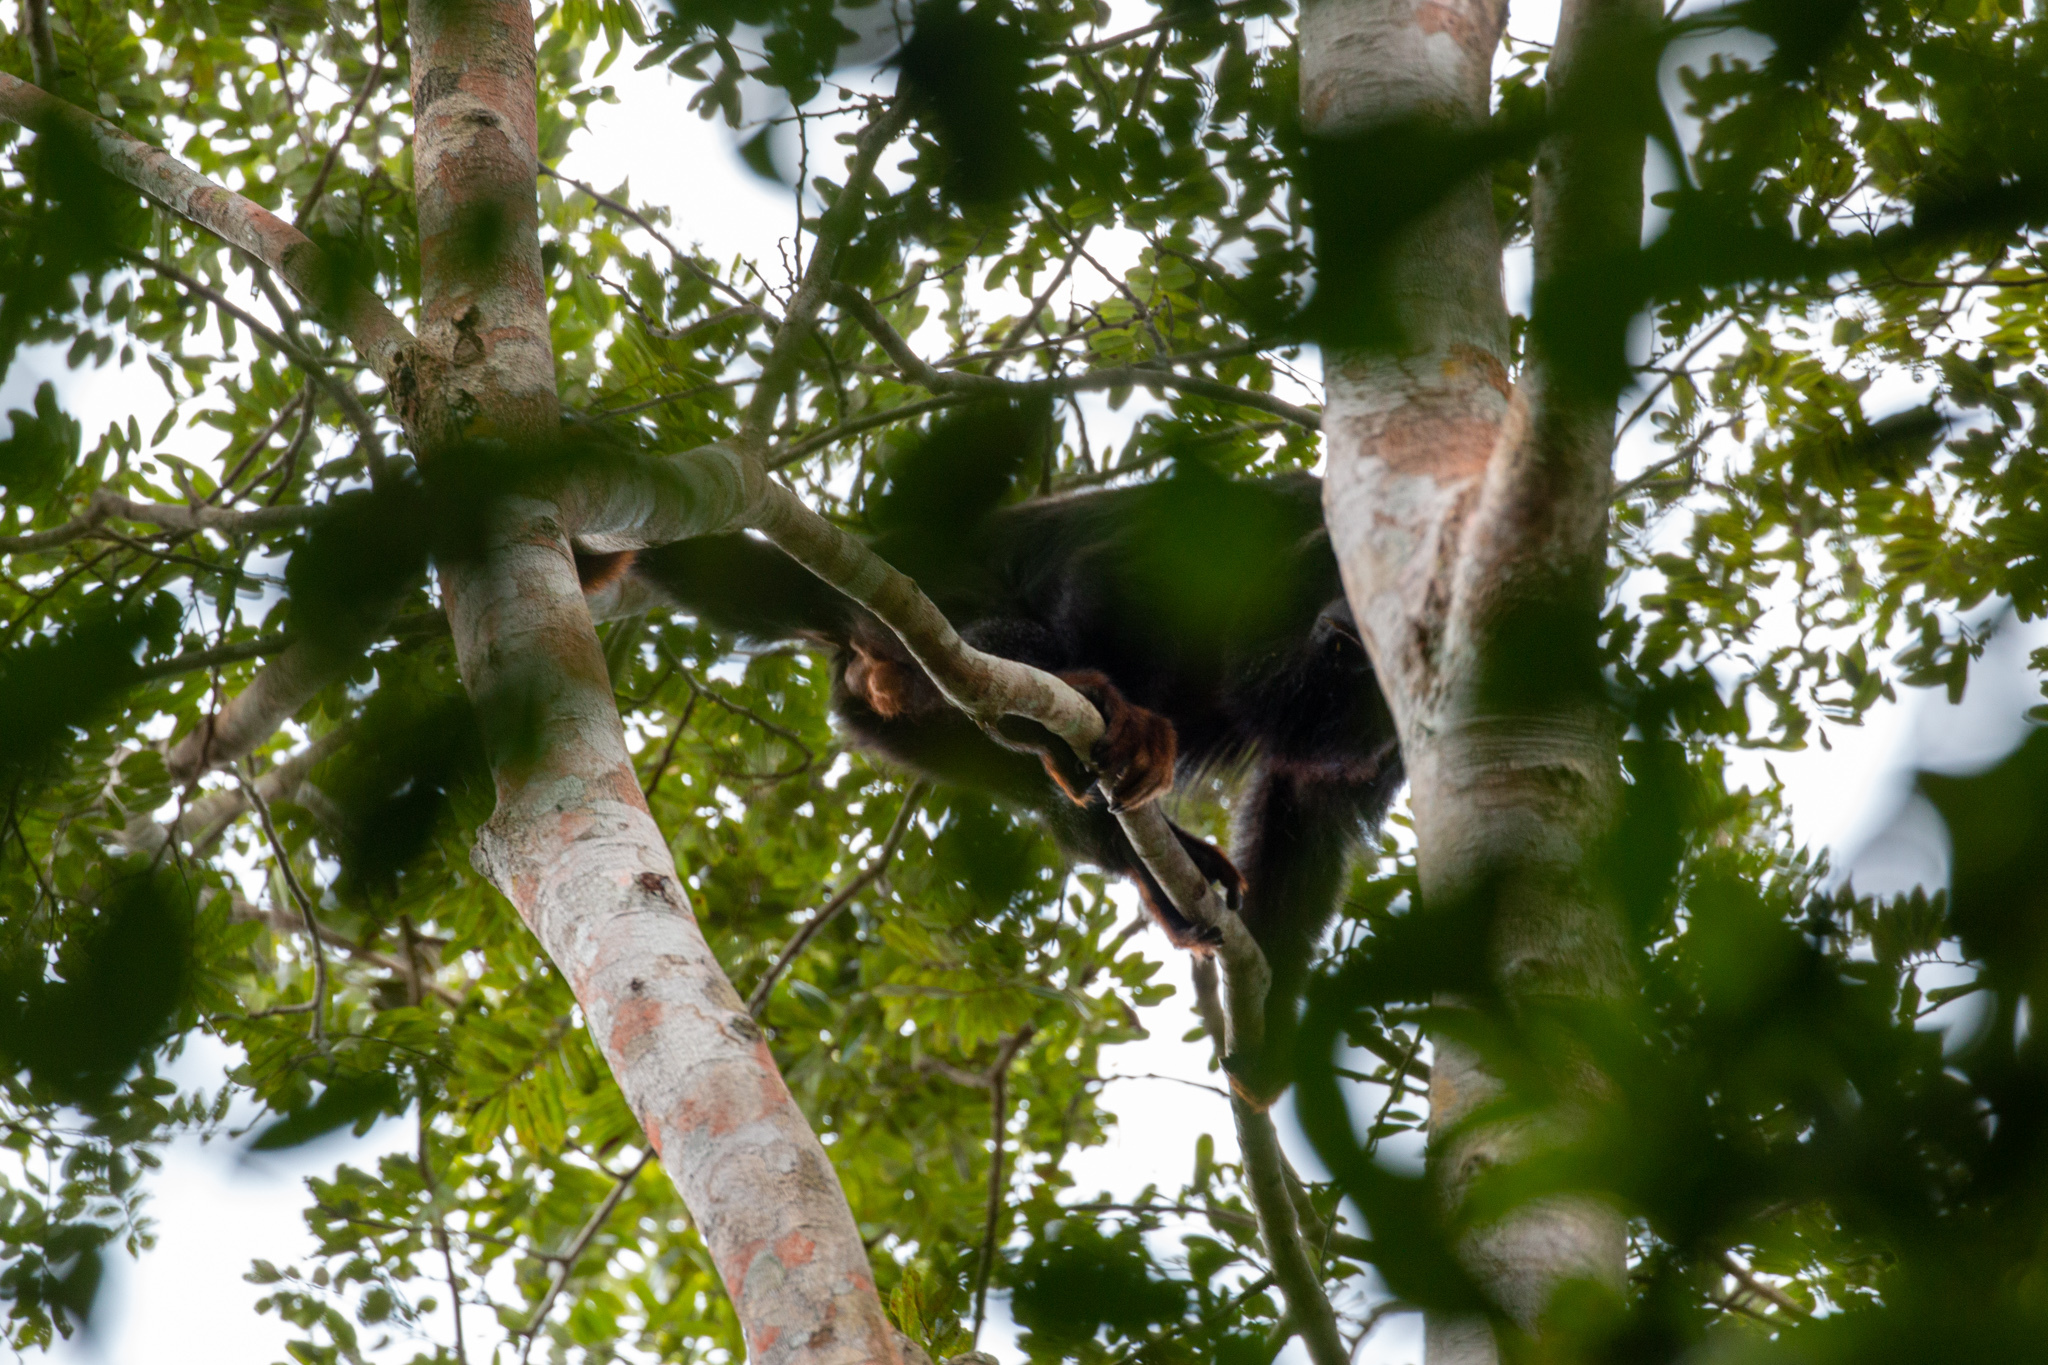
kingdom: Animalia
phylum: Chordata
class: Mammalia
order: Primates
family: Atelidae
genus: Alouatta
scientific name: Alouatta belzebul
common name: Red-handed howler
